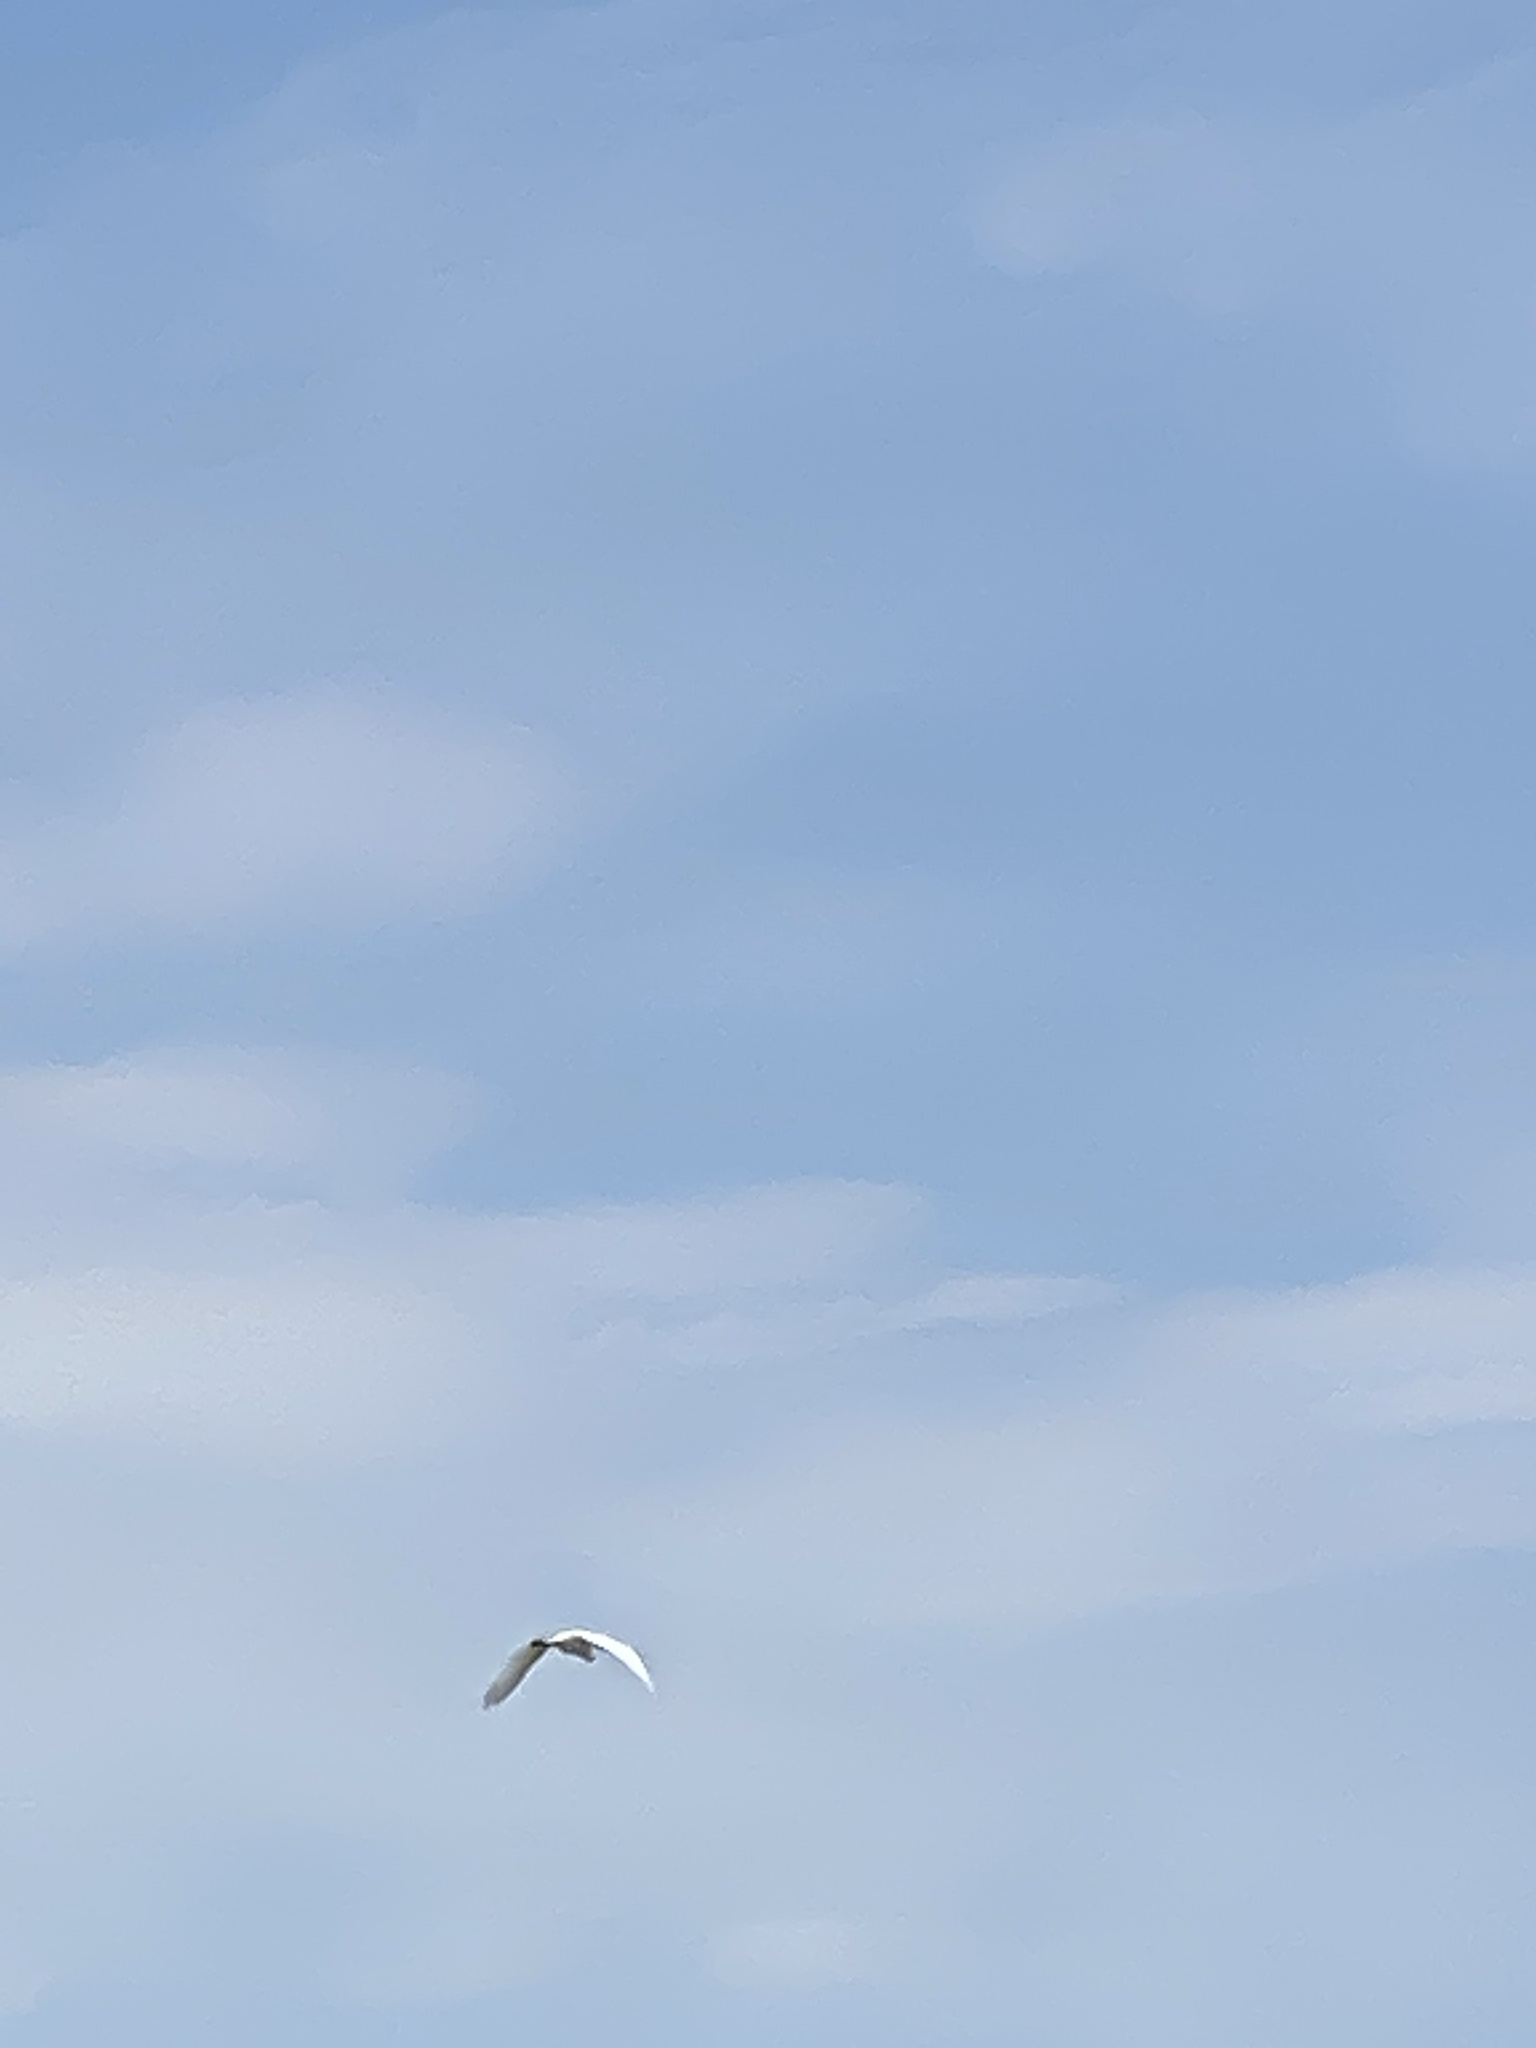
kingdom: Animalia
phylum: Chordata
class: Aves
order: Pelecaniformes
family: Ardeidae
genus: Ardea
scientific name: Ardea alba
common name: Great egret
